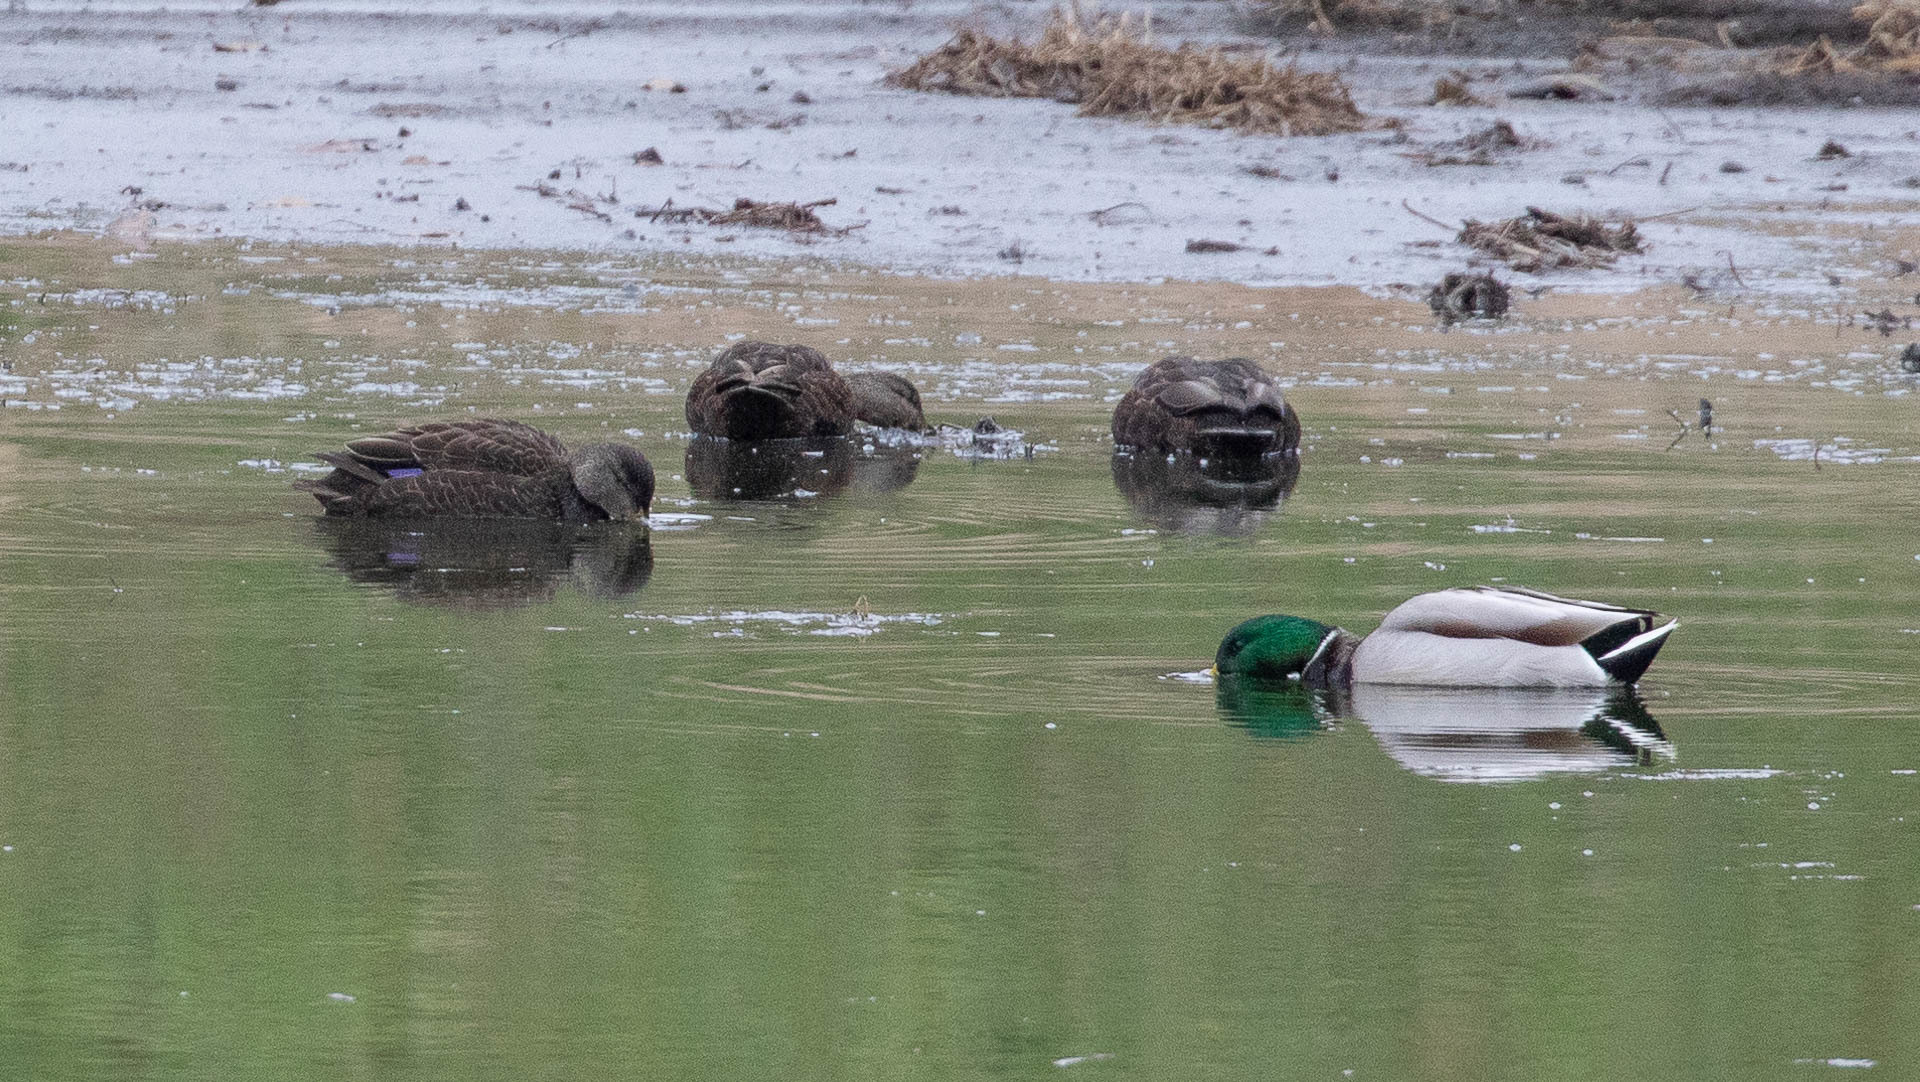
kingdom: Animalia
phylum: Chordata
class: Aves
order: Anseriformes
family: Anatidae
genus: Anas
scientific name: Anas rubripes
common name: American black duck
